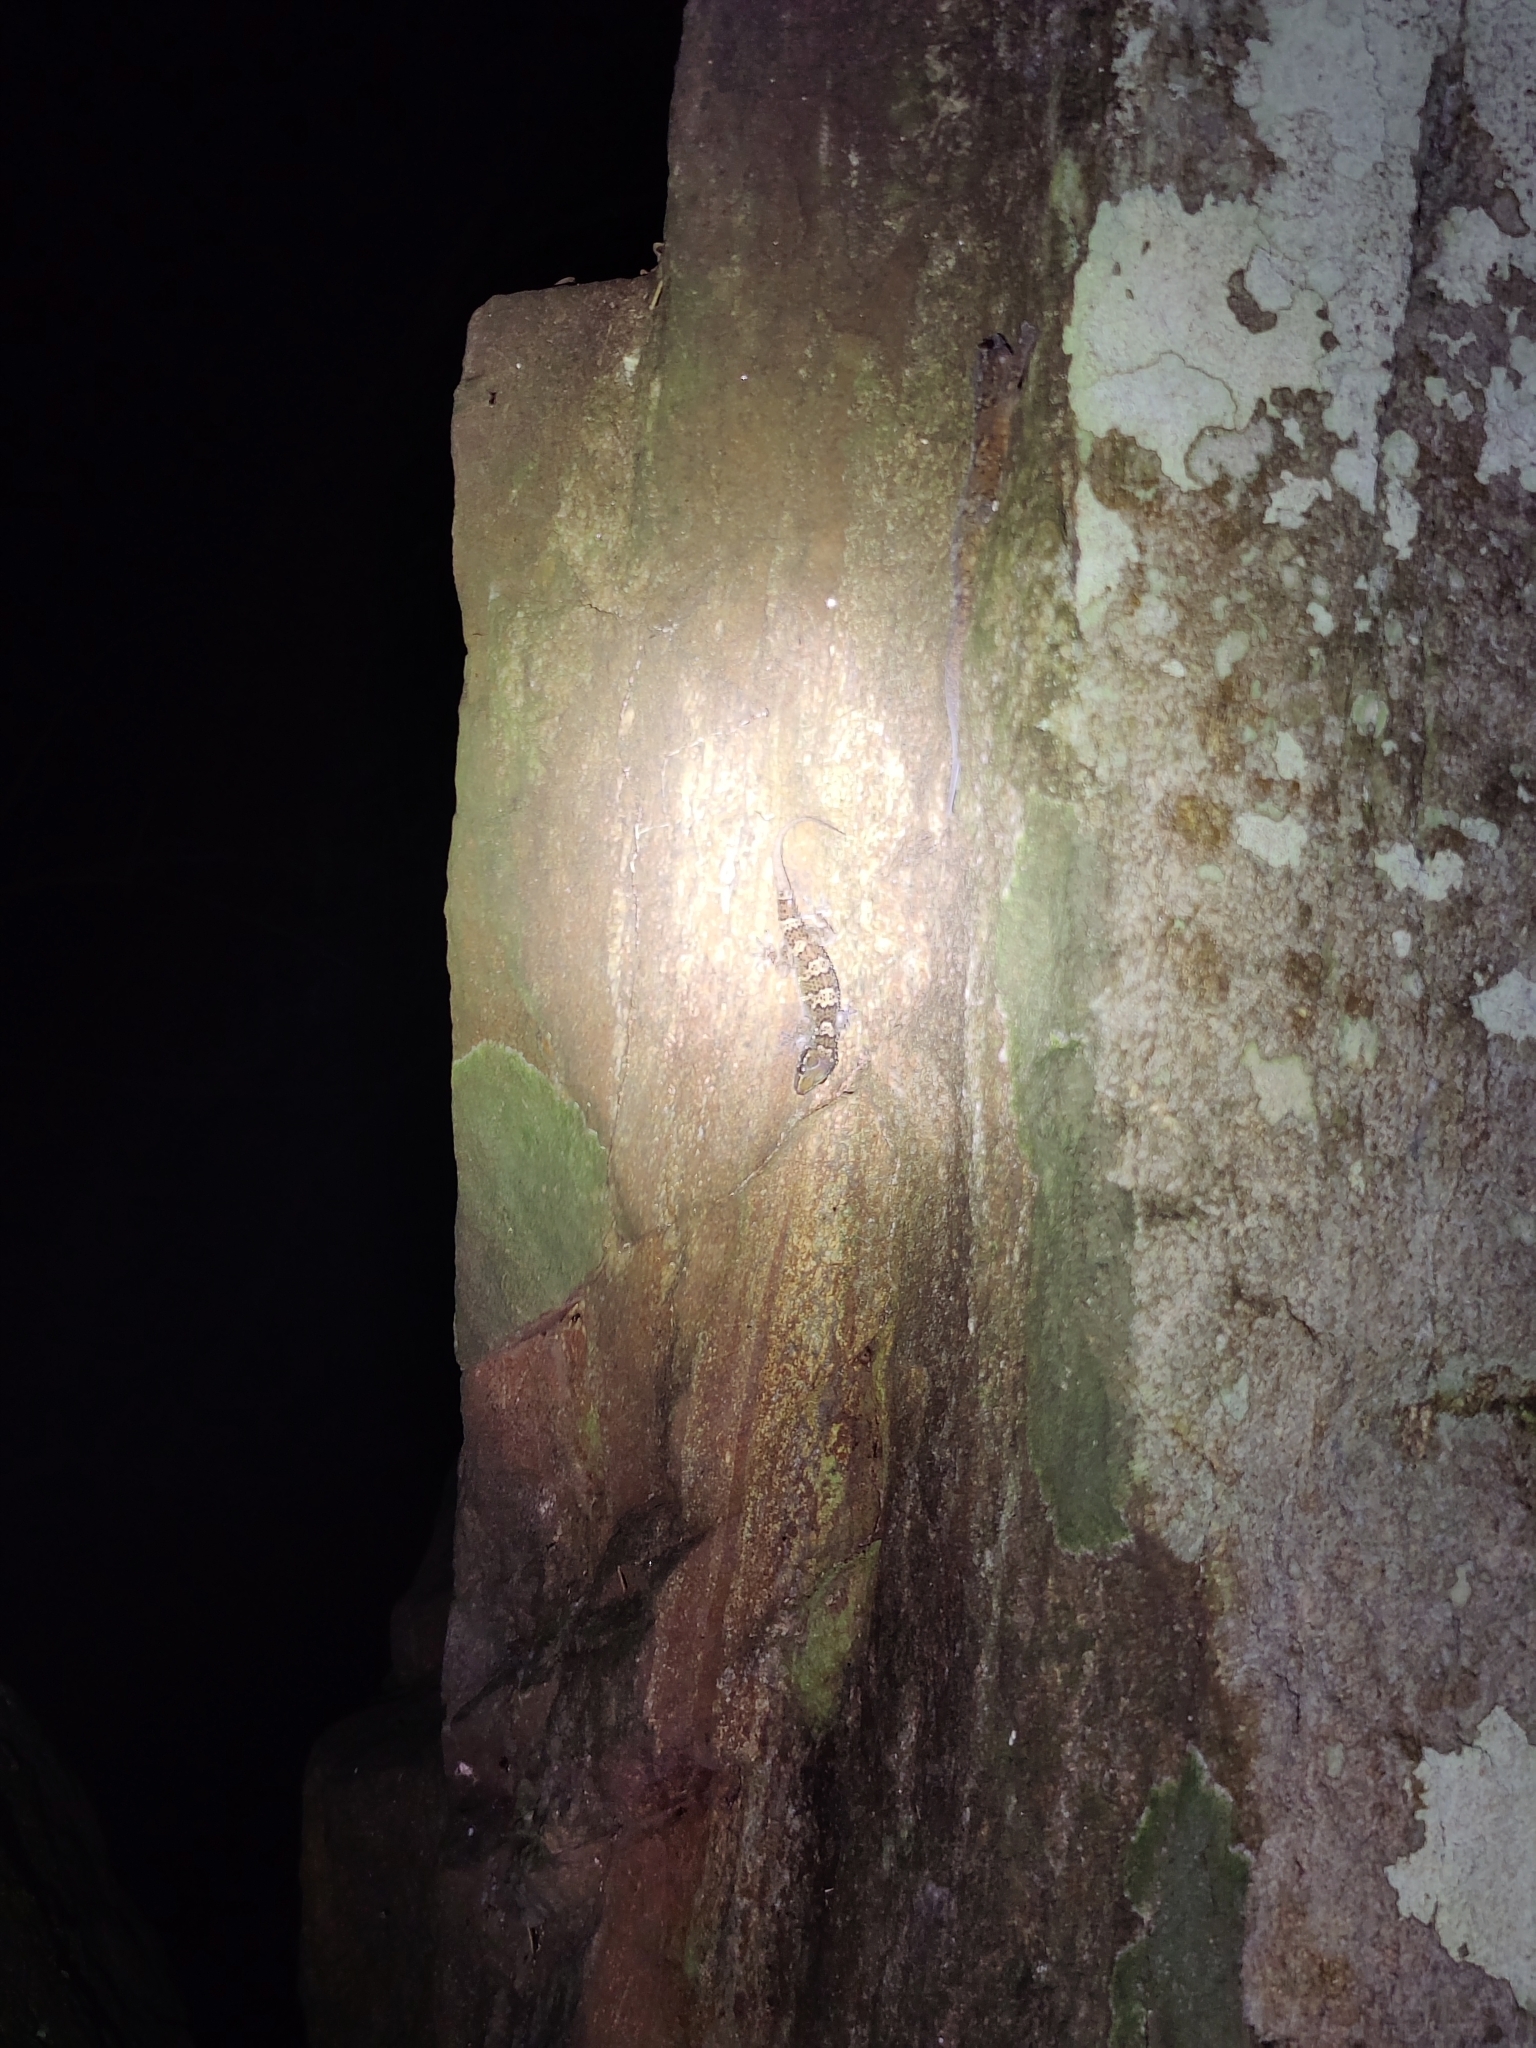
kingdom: Animalia
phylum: Chordata
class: Squamata
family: Gekkonidae
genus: Hemidactylus
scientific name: Hemidactylus triedrus
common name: Blotched house gecko
